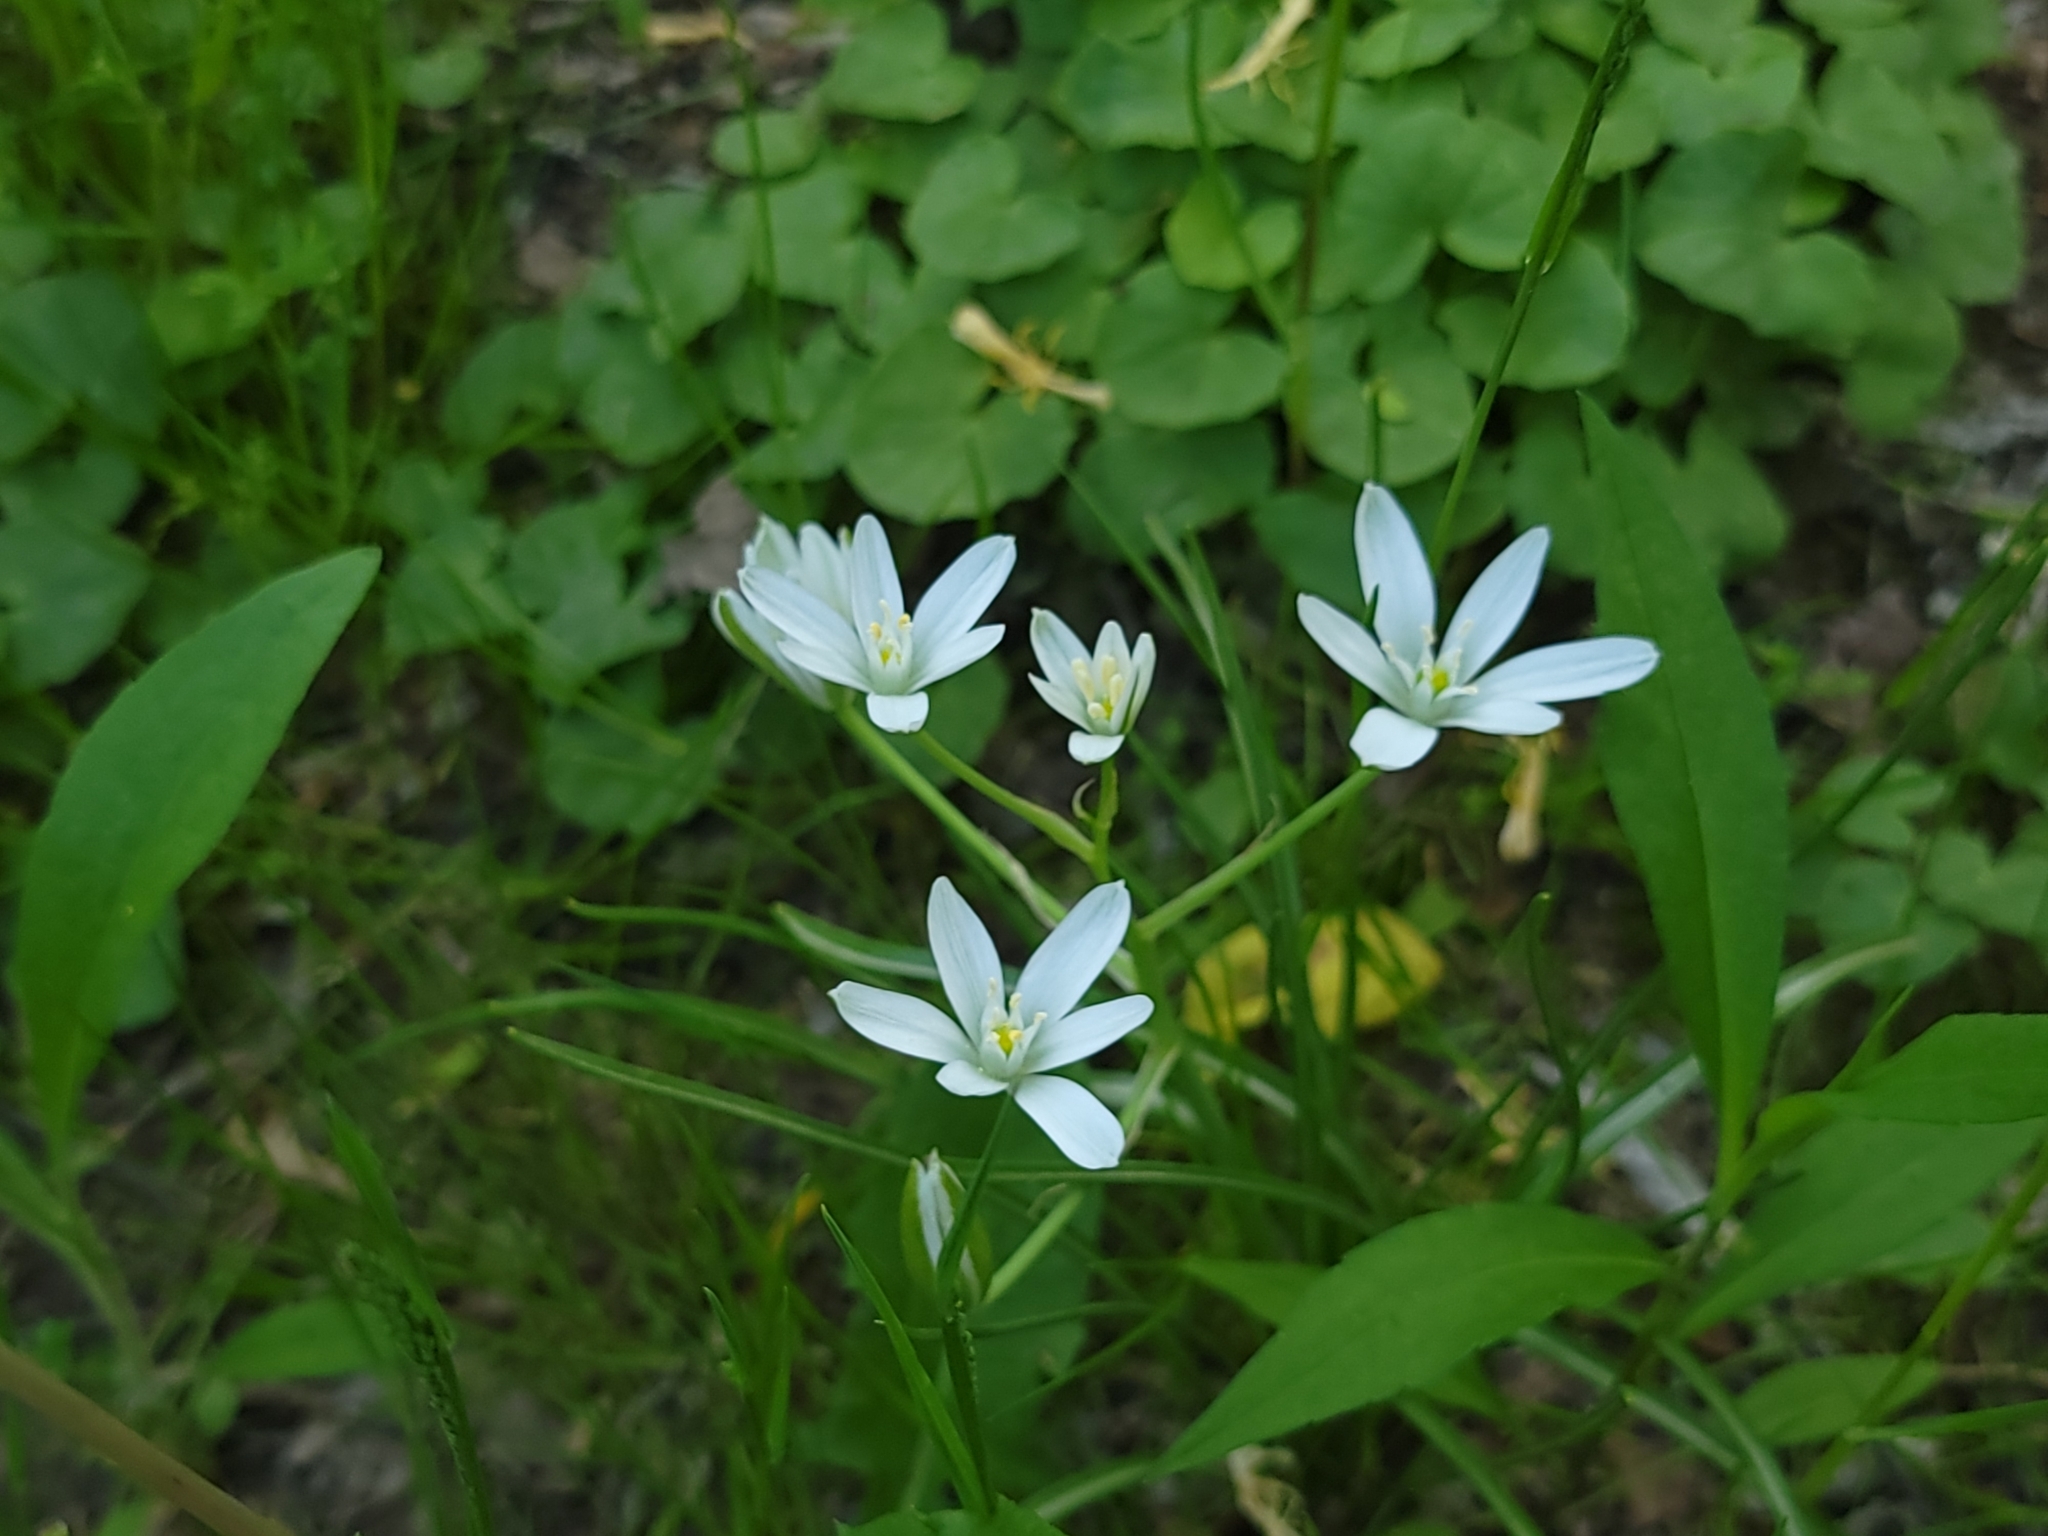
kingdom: Plantae
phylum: Tracheophyta
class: Liliopsida
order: Asparagales
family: Asparagaceae
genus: Ornithogalum
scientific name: Ornithogalum umbellatum
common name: Garden star-of-bethlehem
